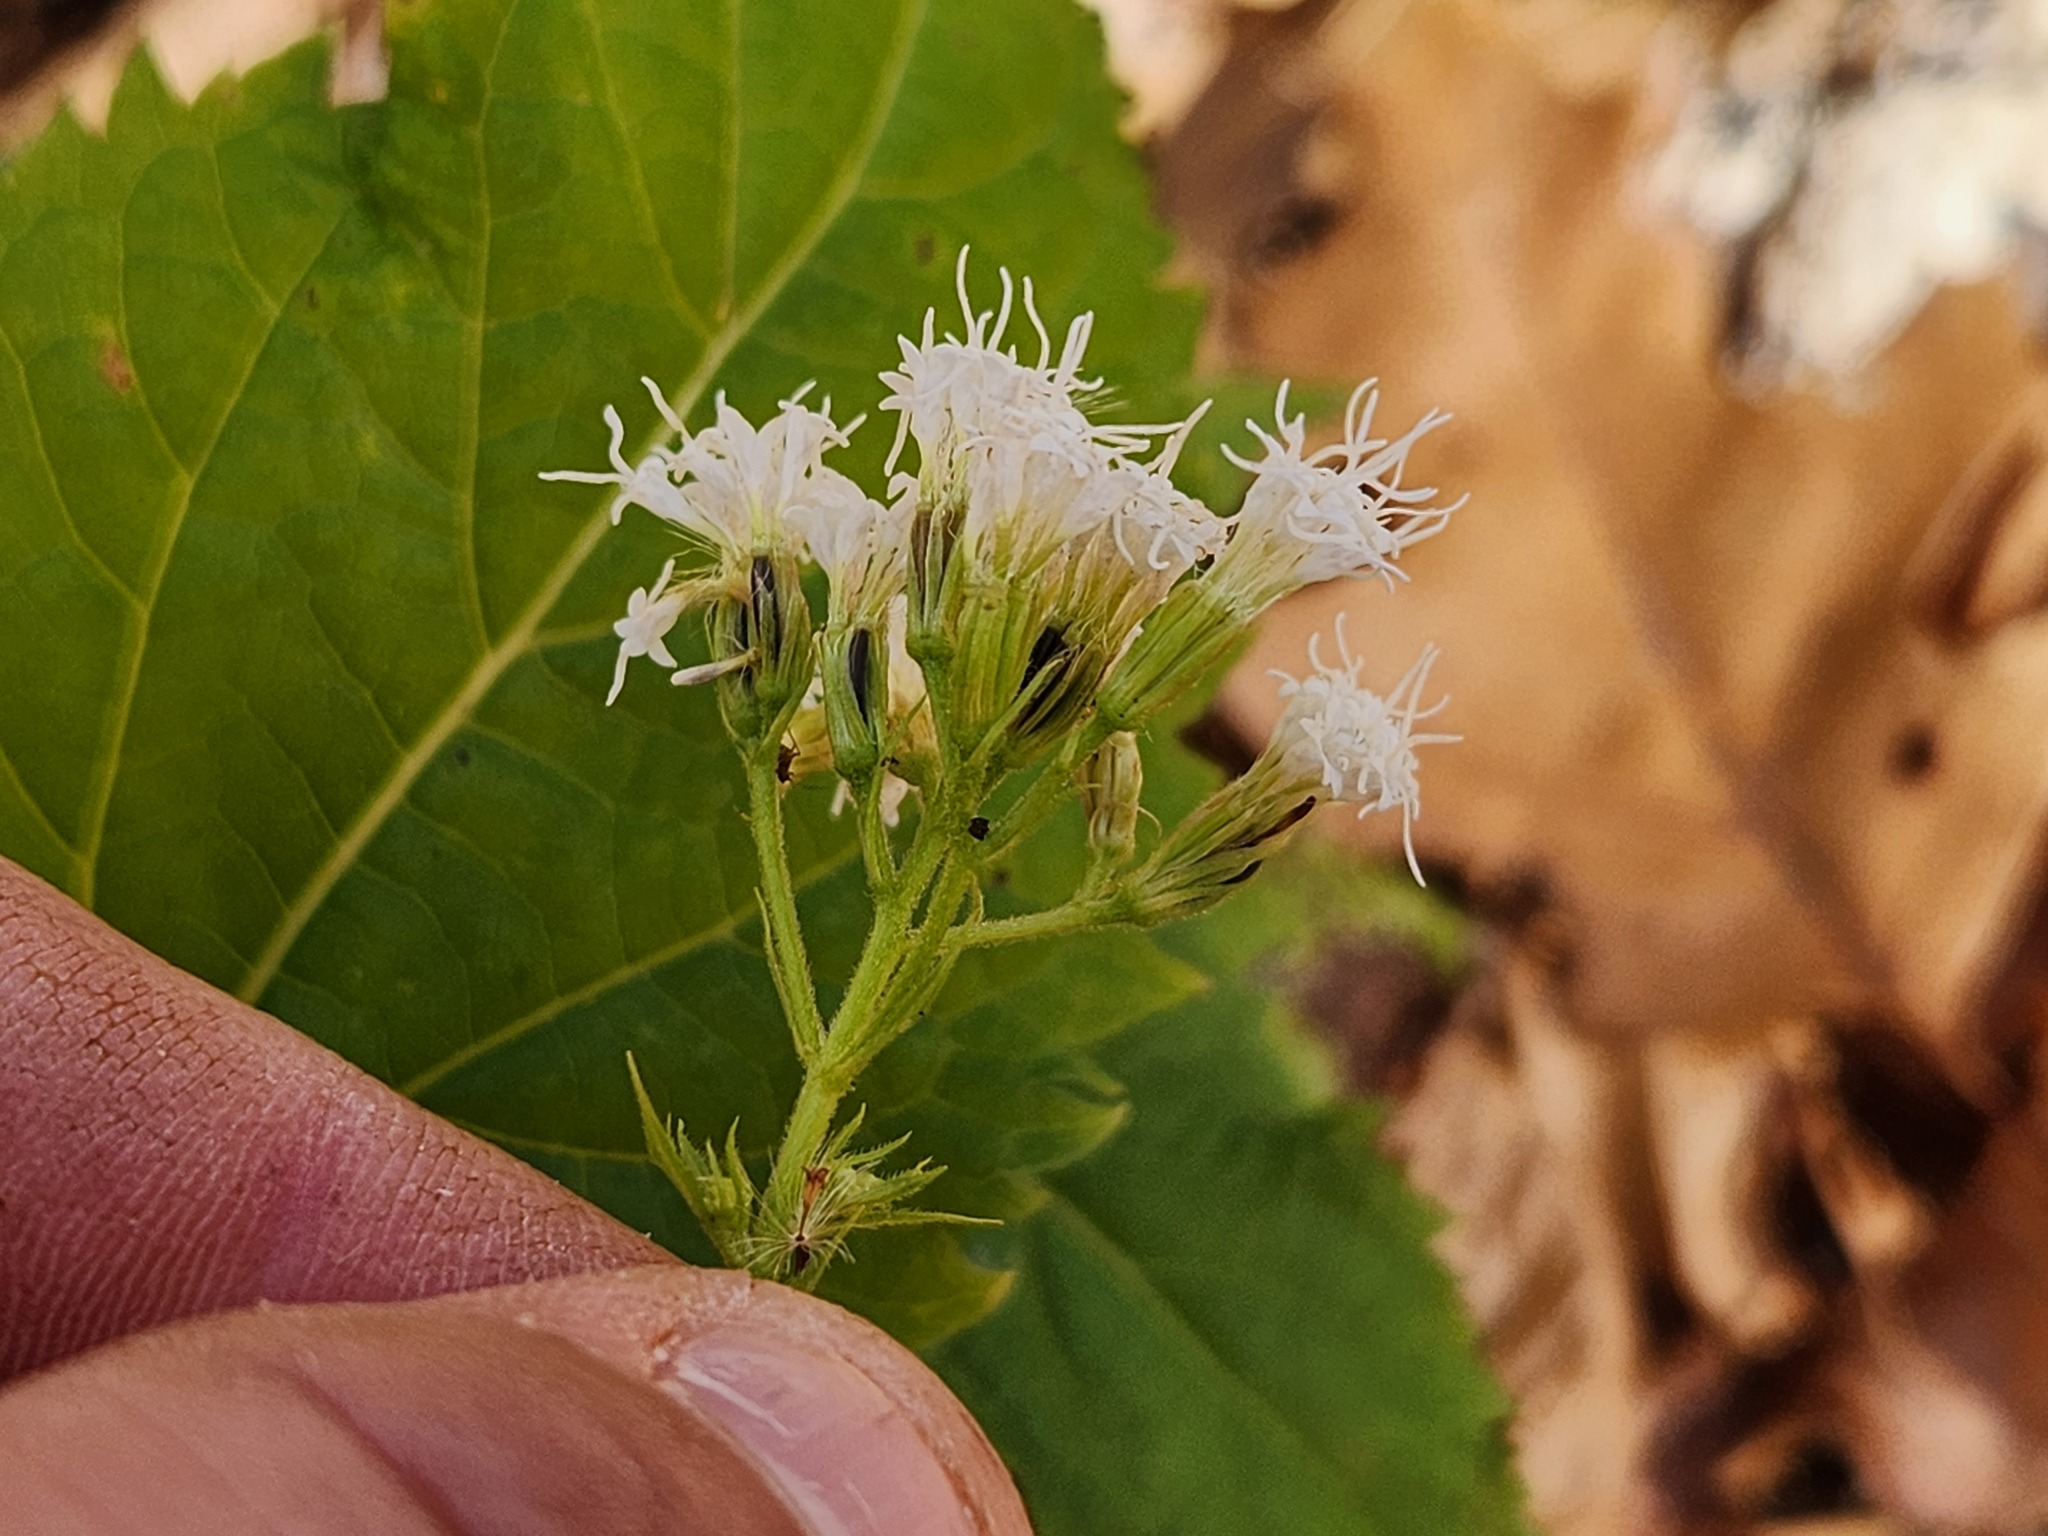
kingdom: Plantae
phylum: Tracheophyta
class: Magnoliopsida
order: Asterales
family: Asteraceae
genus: Ageratina
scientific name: Ageratina altissima
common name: White snakeroot
